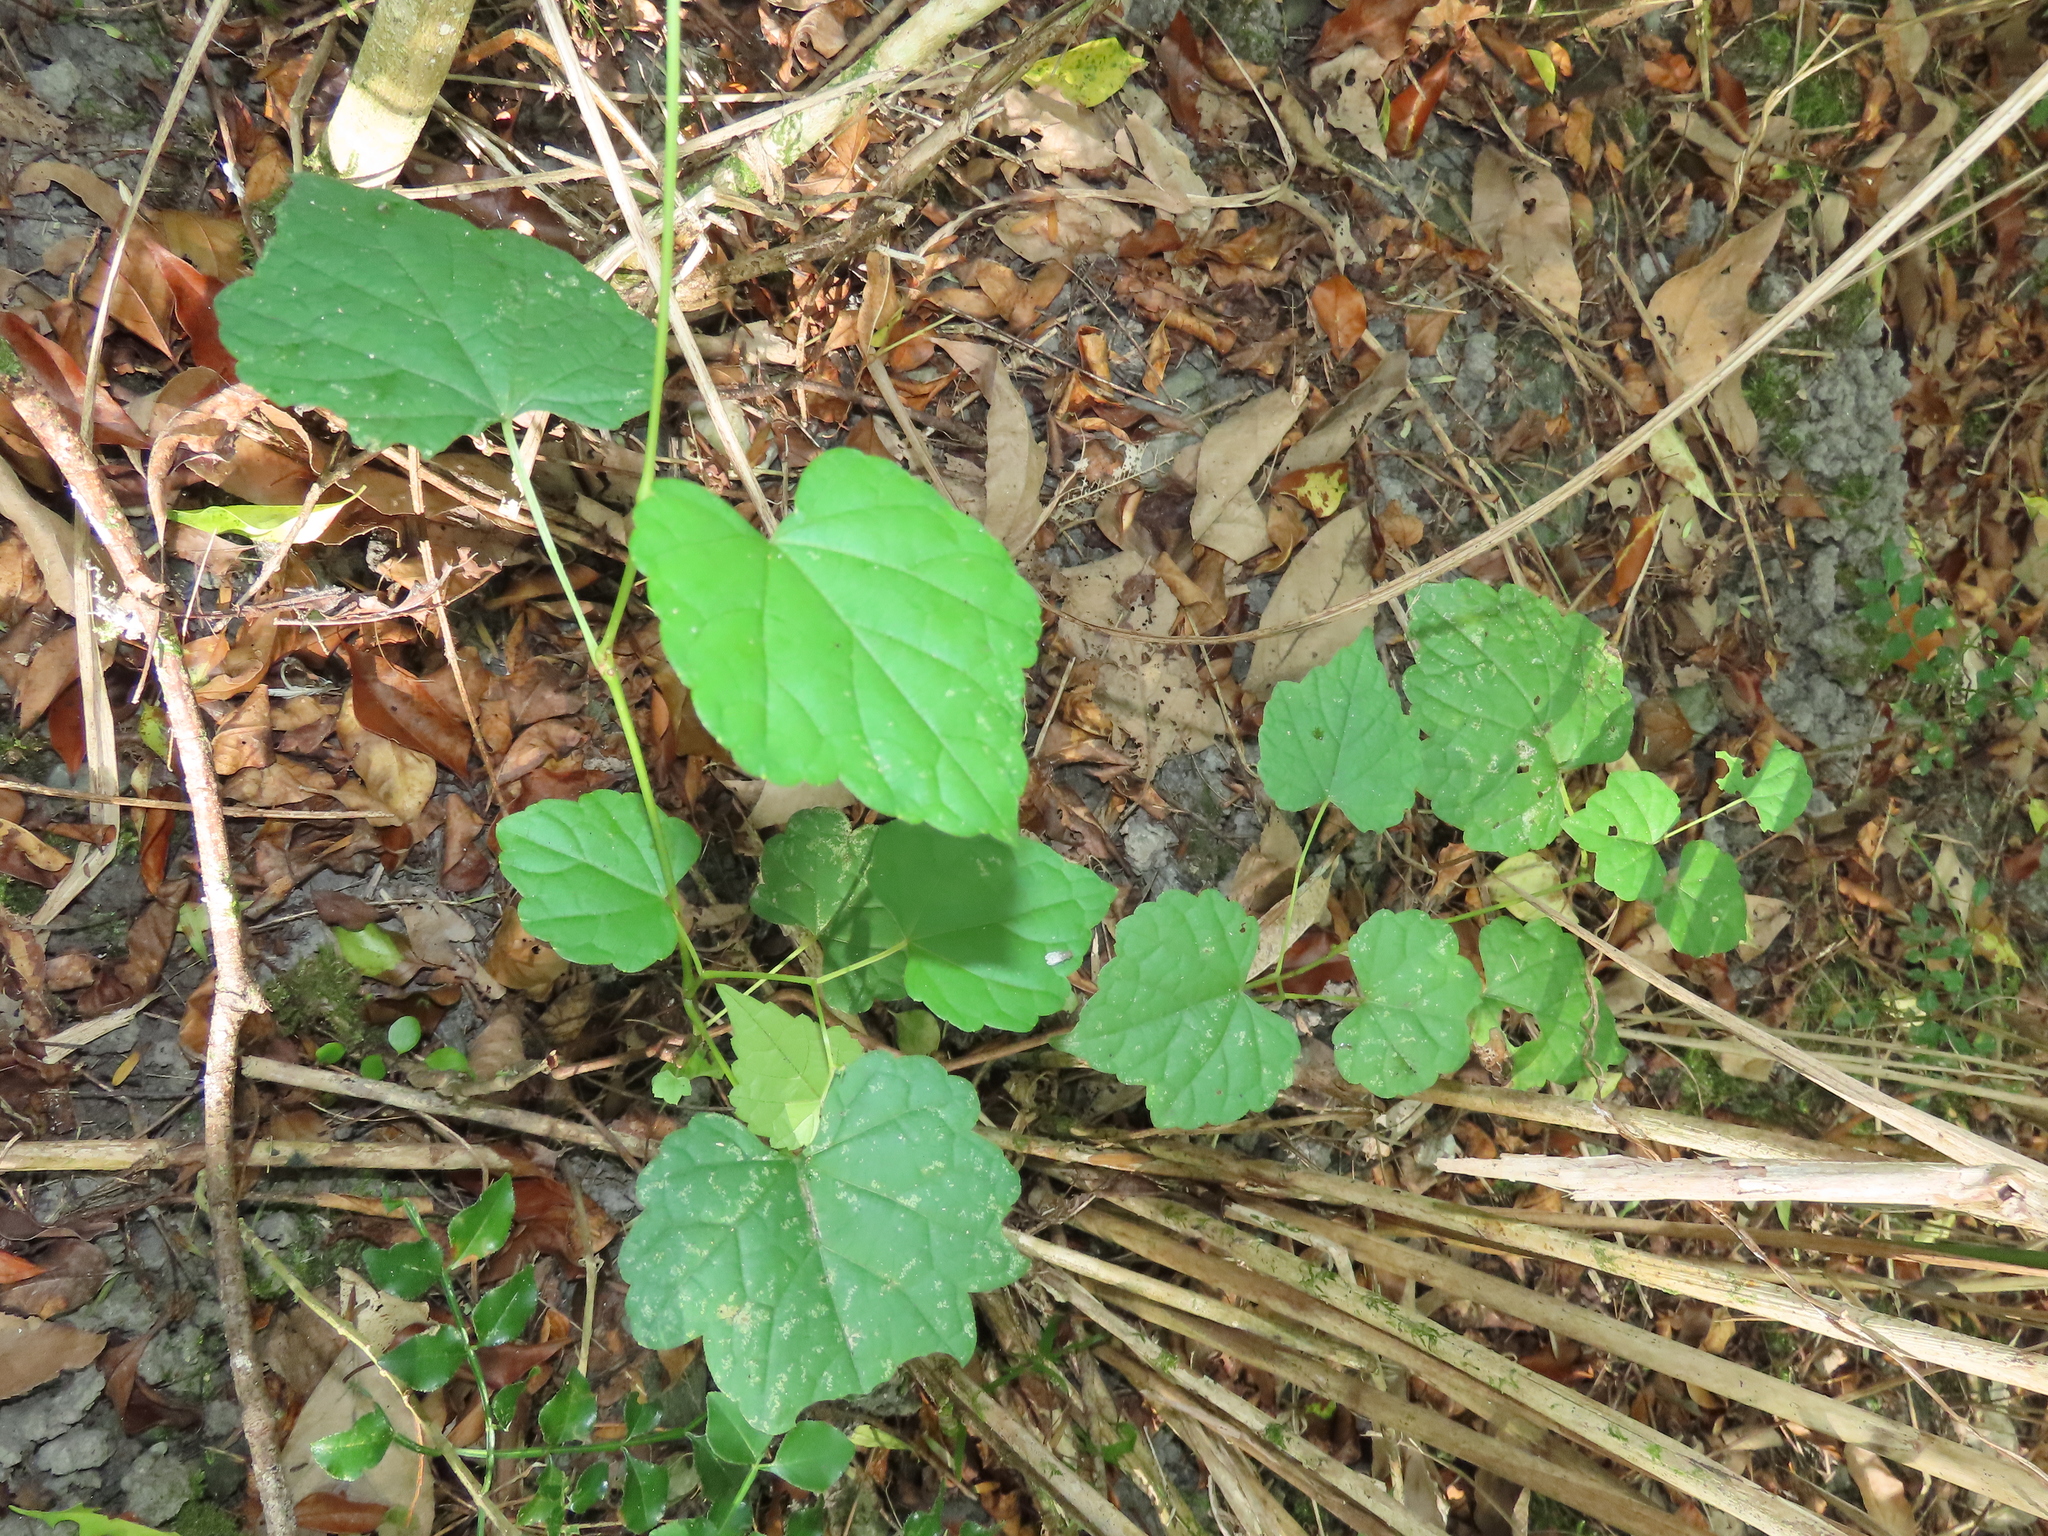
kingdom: Plantae
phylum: Tracheophyta
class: Magnoliopsida
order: Vitales
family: Vitaceae
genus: Ampelopsis
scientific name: Ampelopsis glandulosa
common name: Amur peppervine
